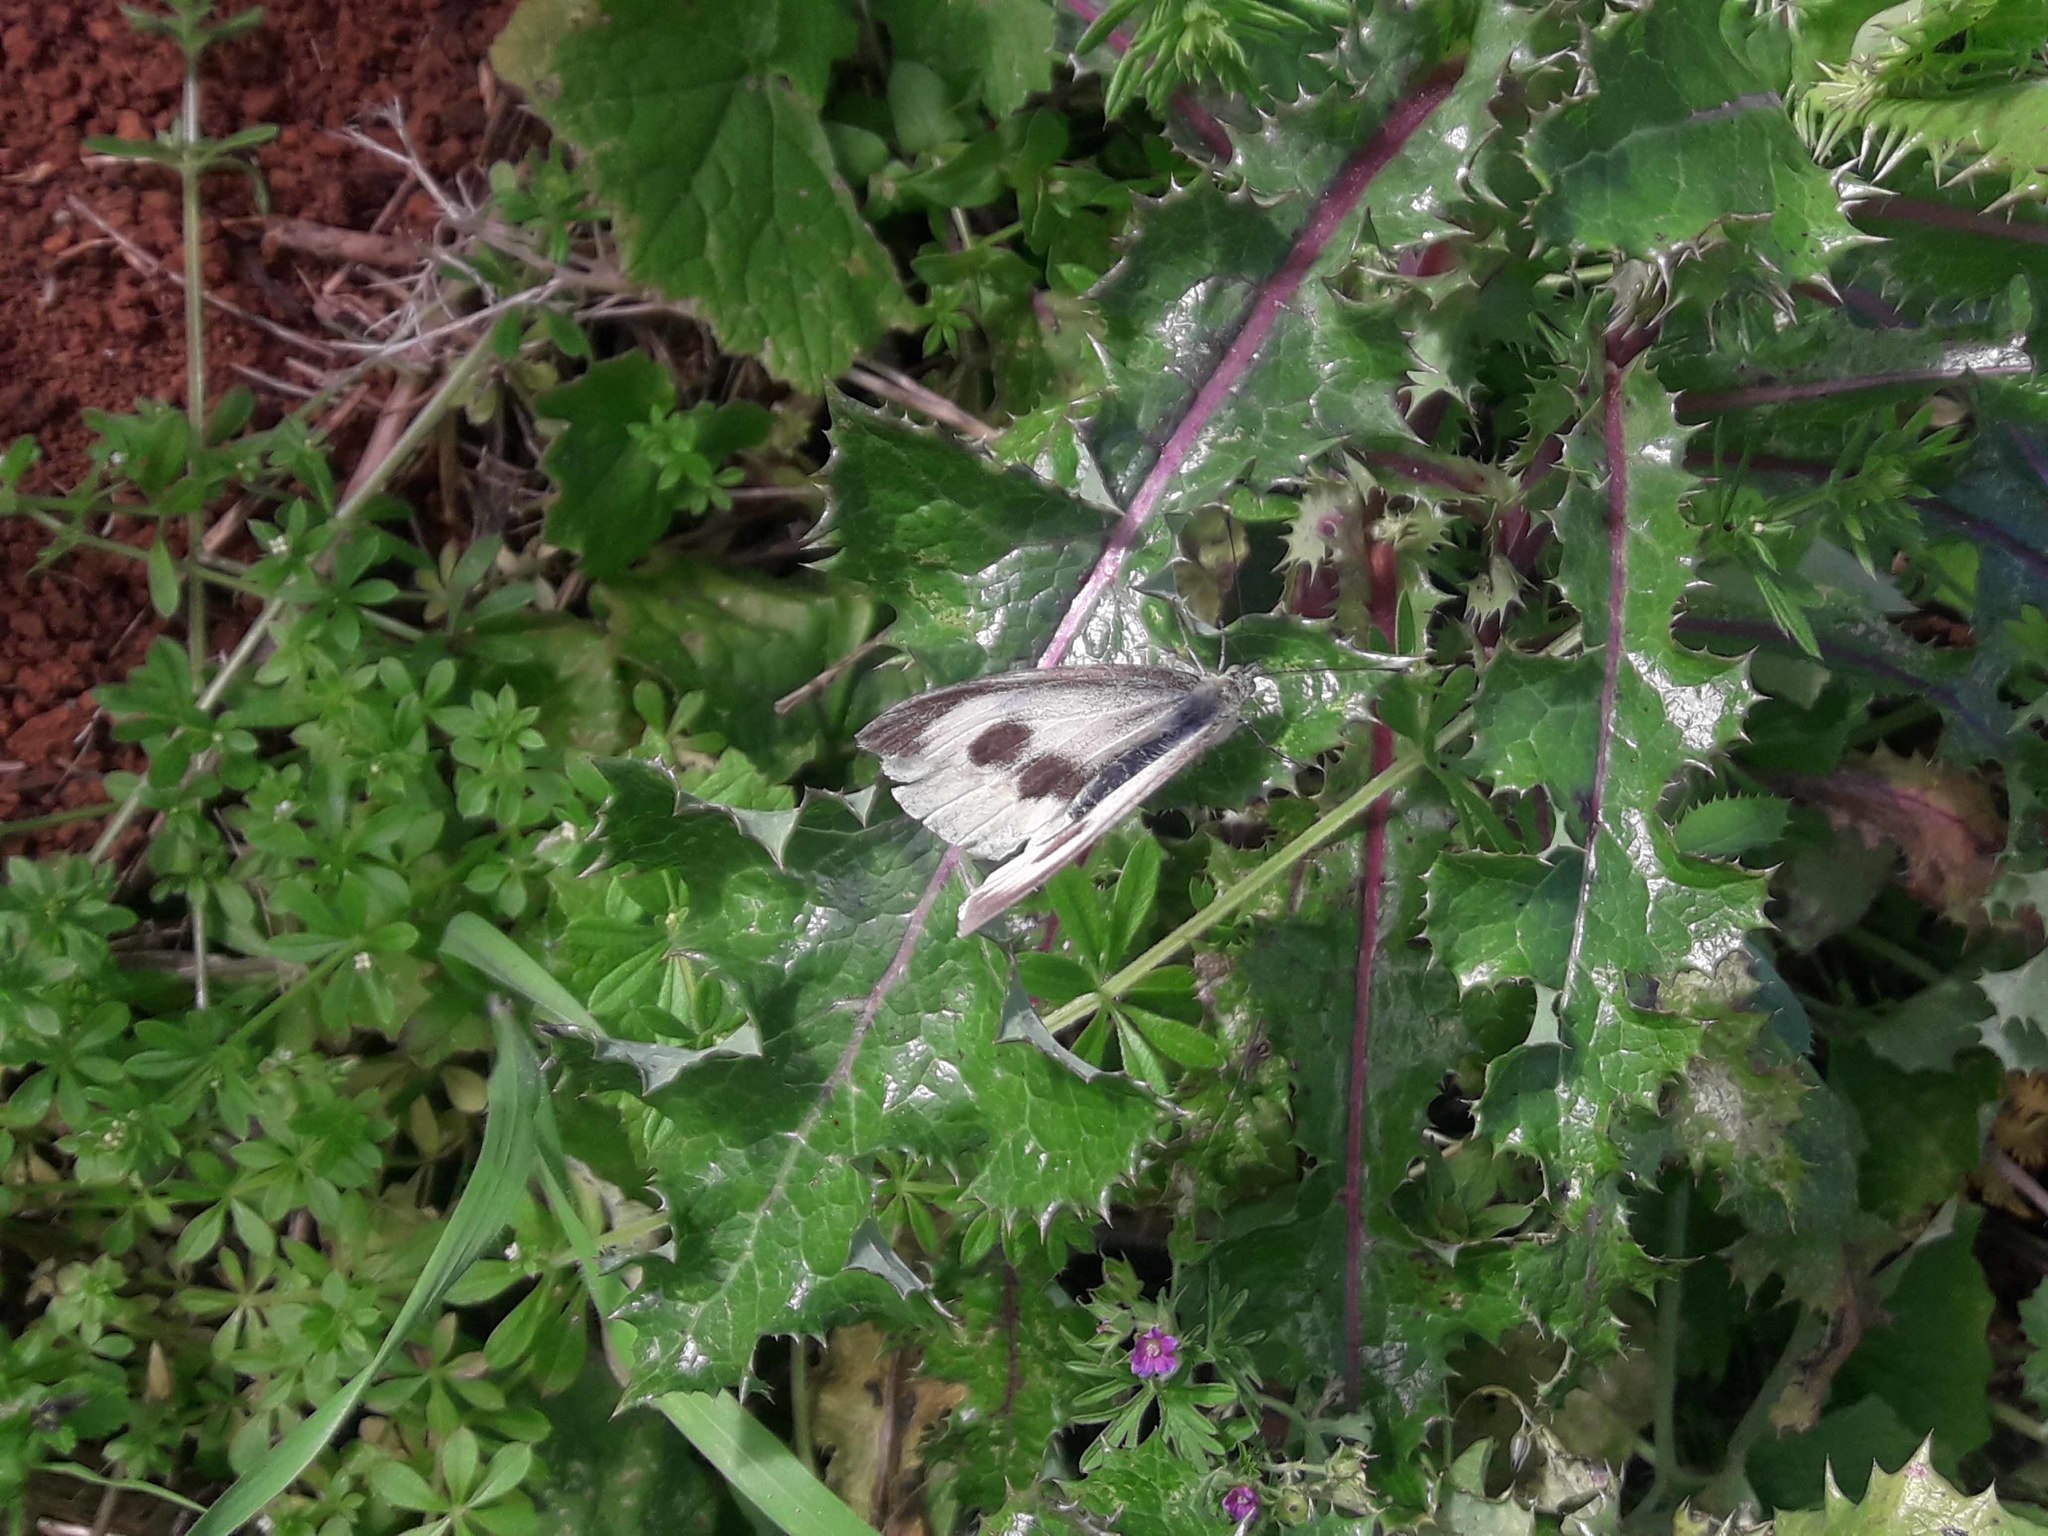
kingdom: Animalia
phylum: Arthropoda
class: Insecta
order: Lepidoptera
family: Pieridae
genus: Pieris
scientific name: Pieris cheiranthi
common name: Canary islands large white
